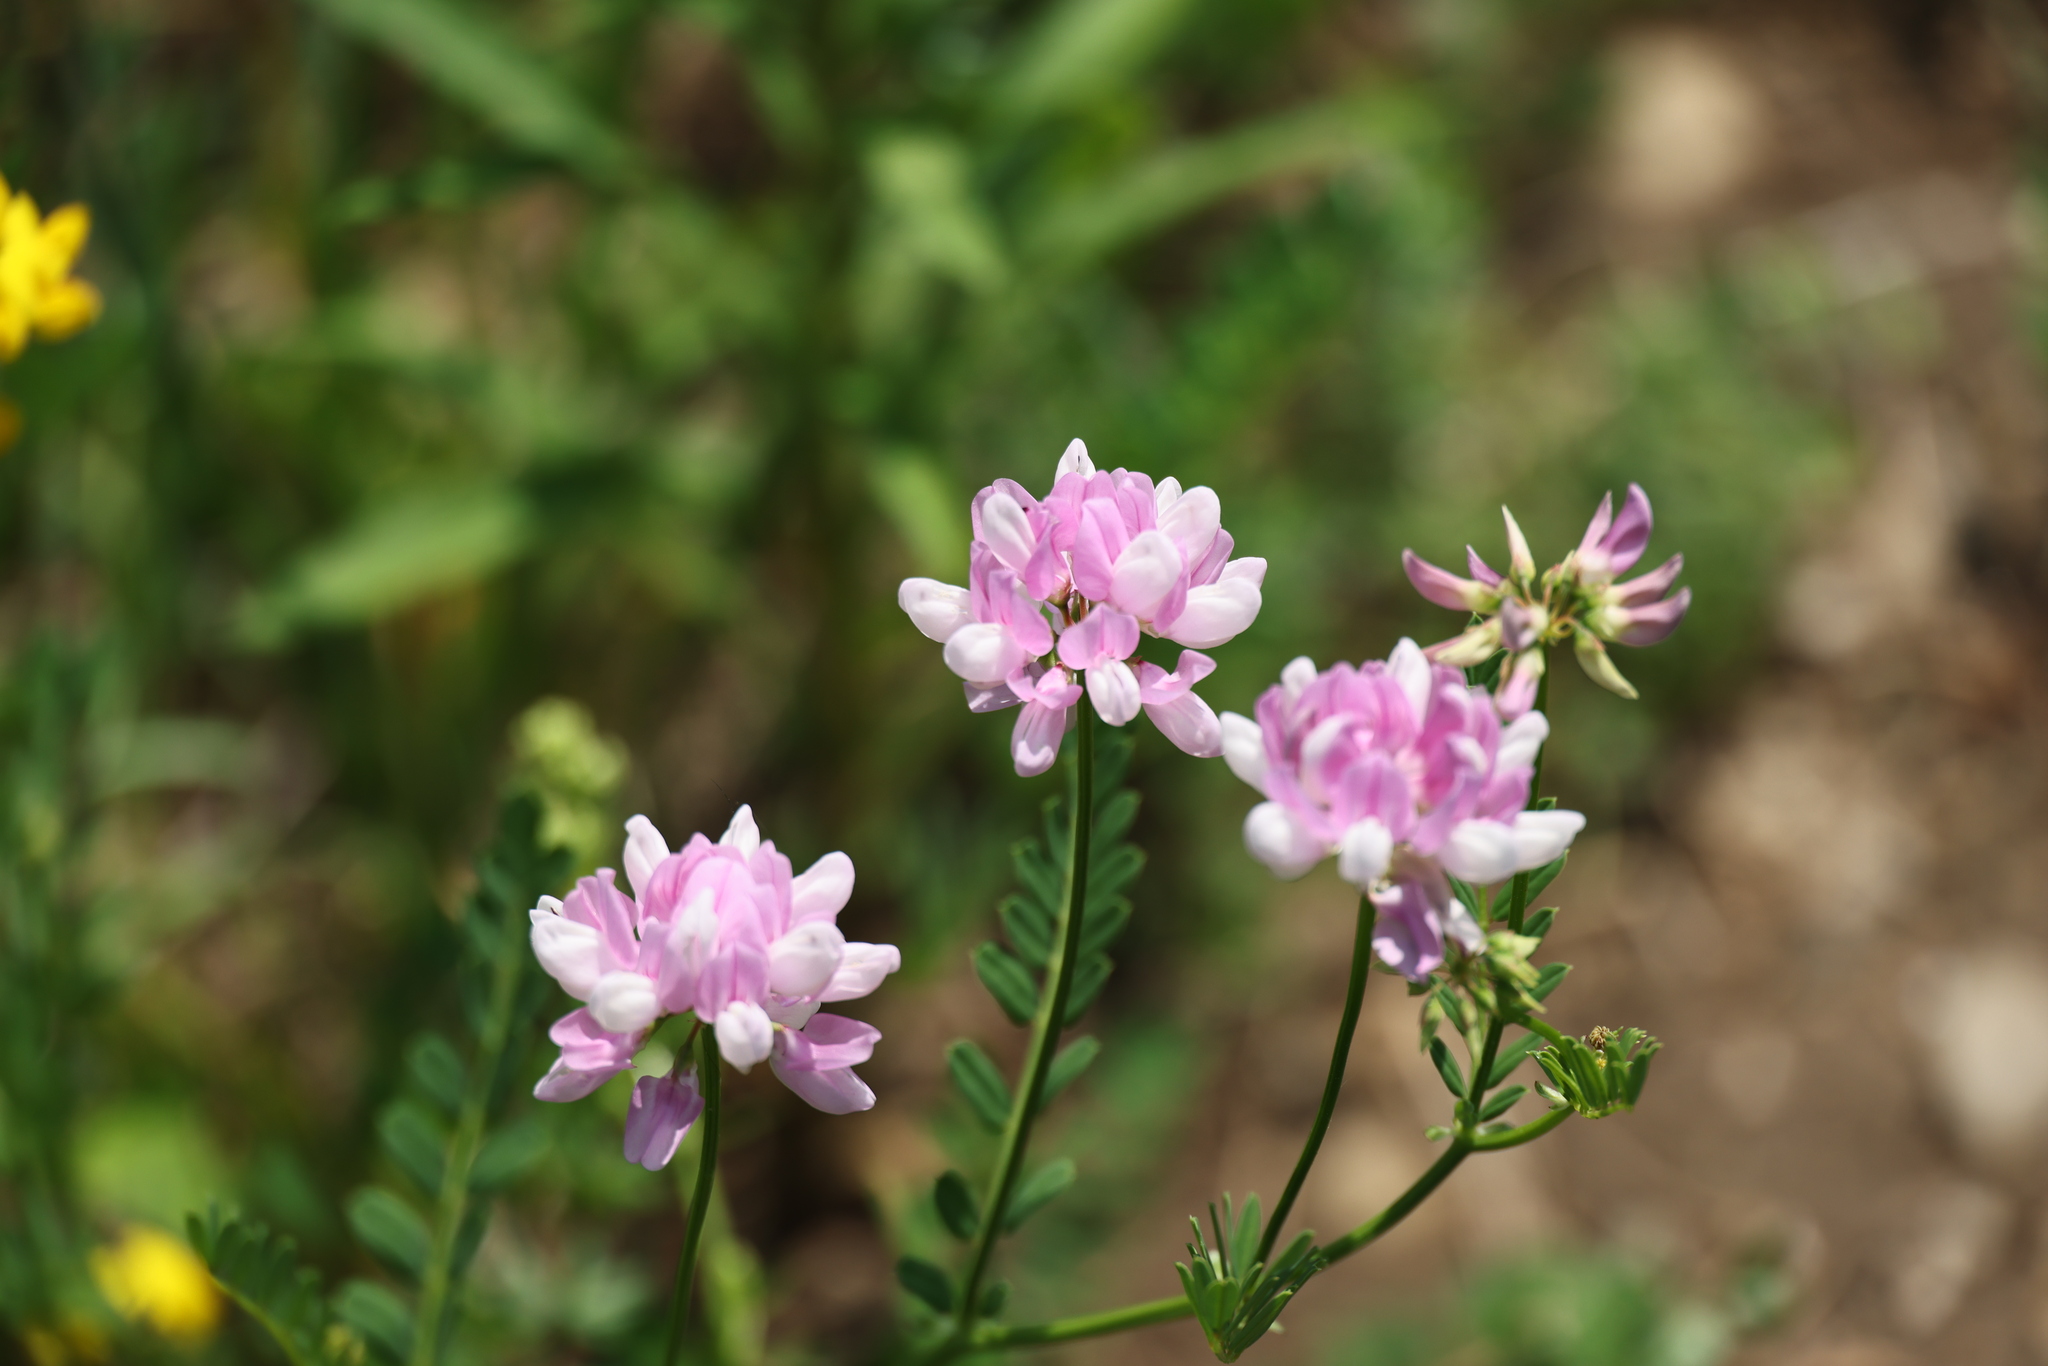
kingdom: Plantae
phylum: Tracheophyta
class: Magnoliopsida
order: Fabales
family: Fabaceae
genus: Coronilla
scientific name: Coronilla varia
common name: Crownvetch
